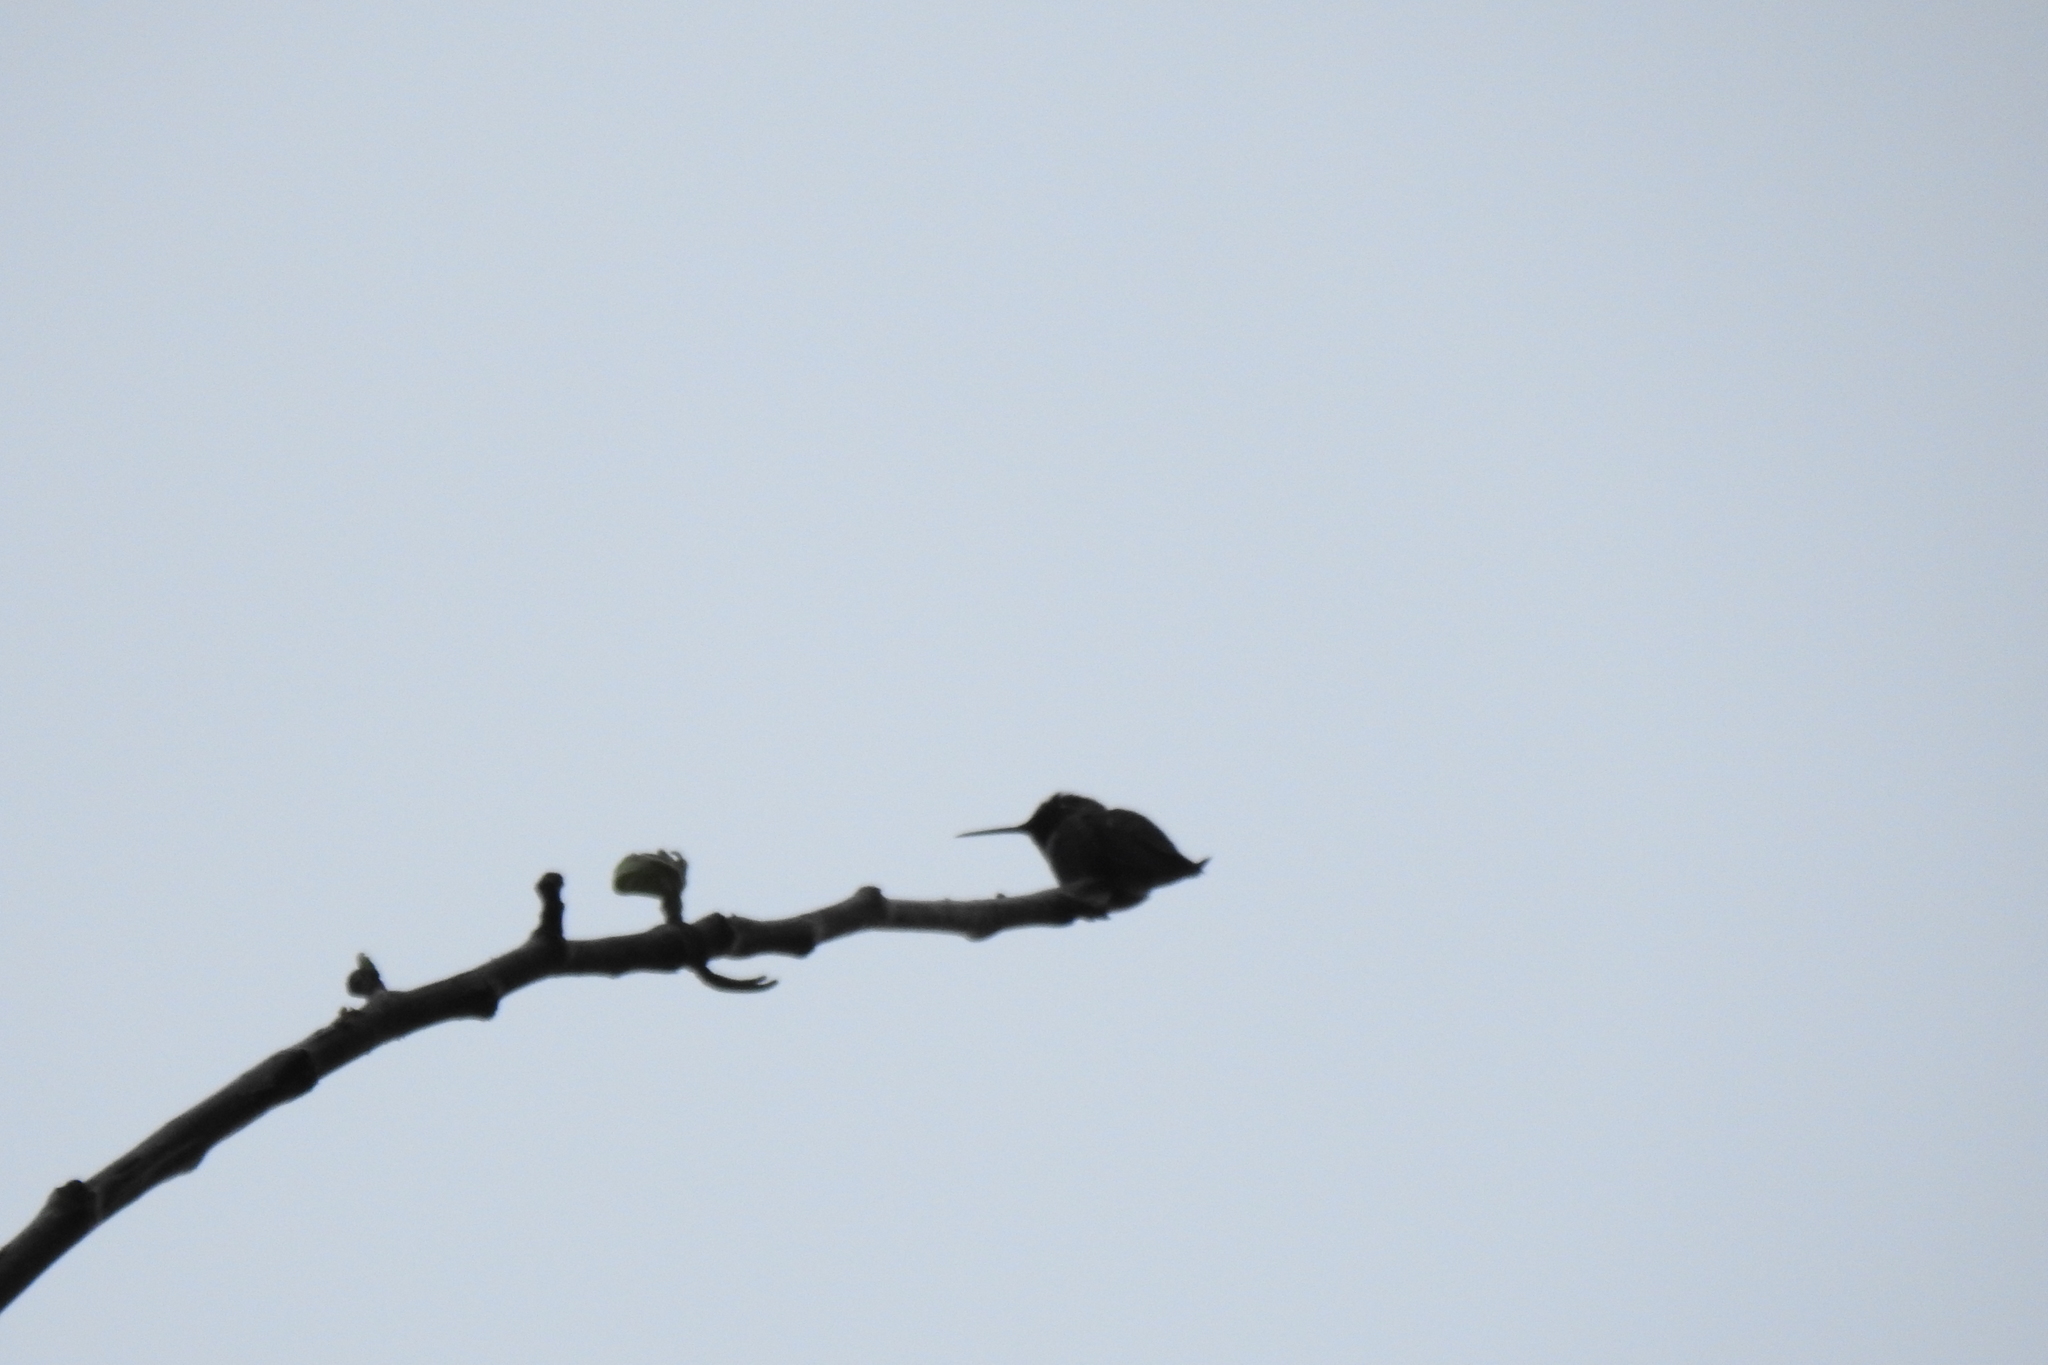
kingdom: Animalia
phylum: Chordata
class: Aves
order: Apodiformes
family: Trochilidae
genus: Calypte
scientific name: Calypte anna
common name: Anna's hummingbird
